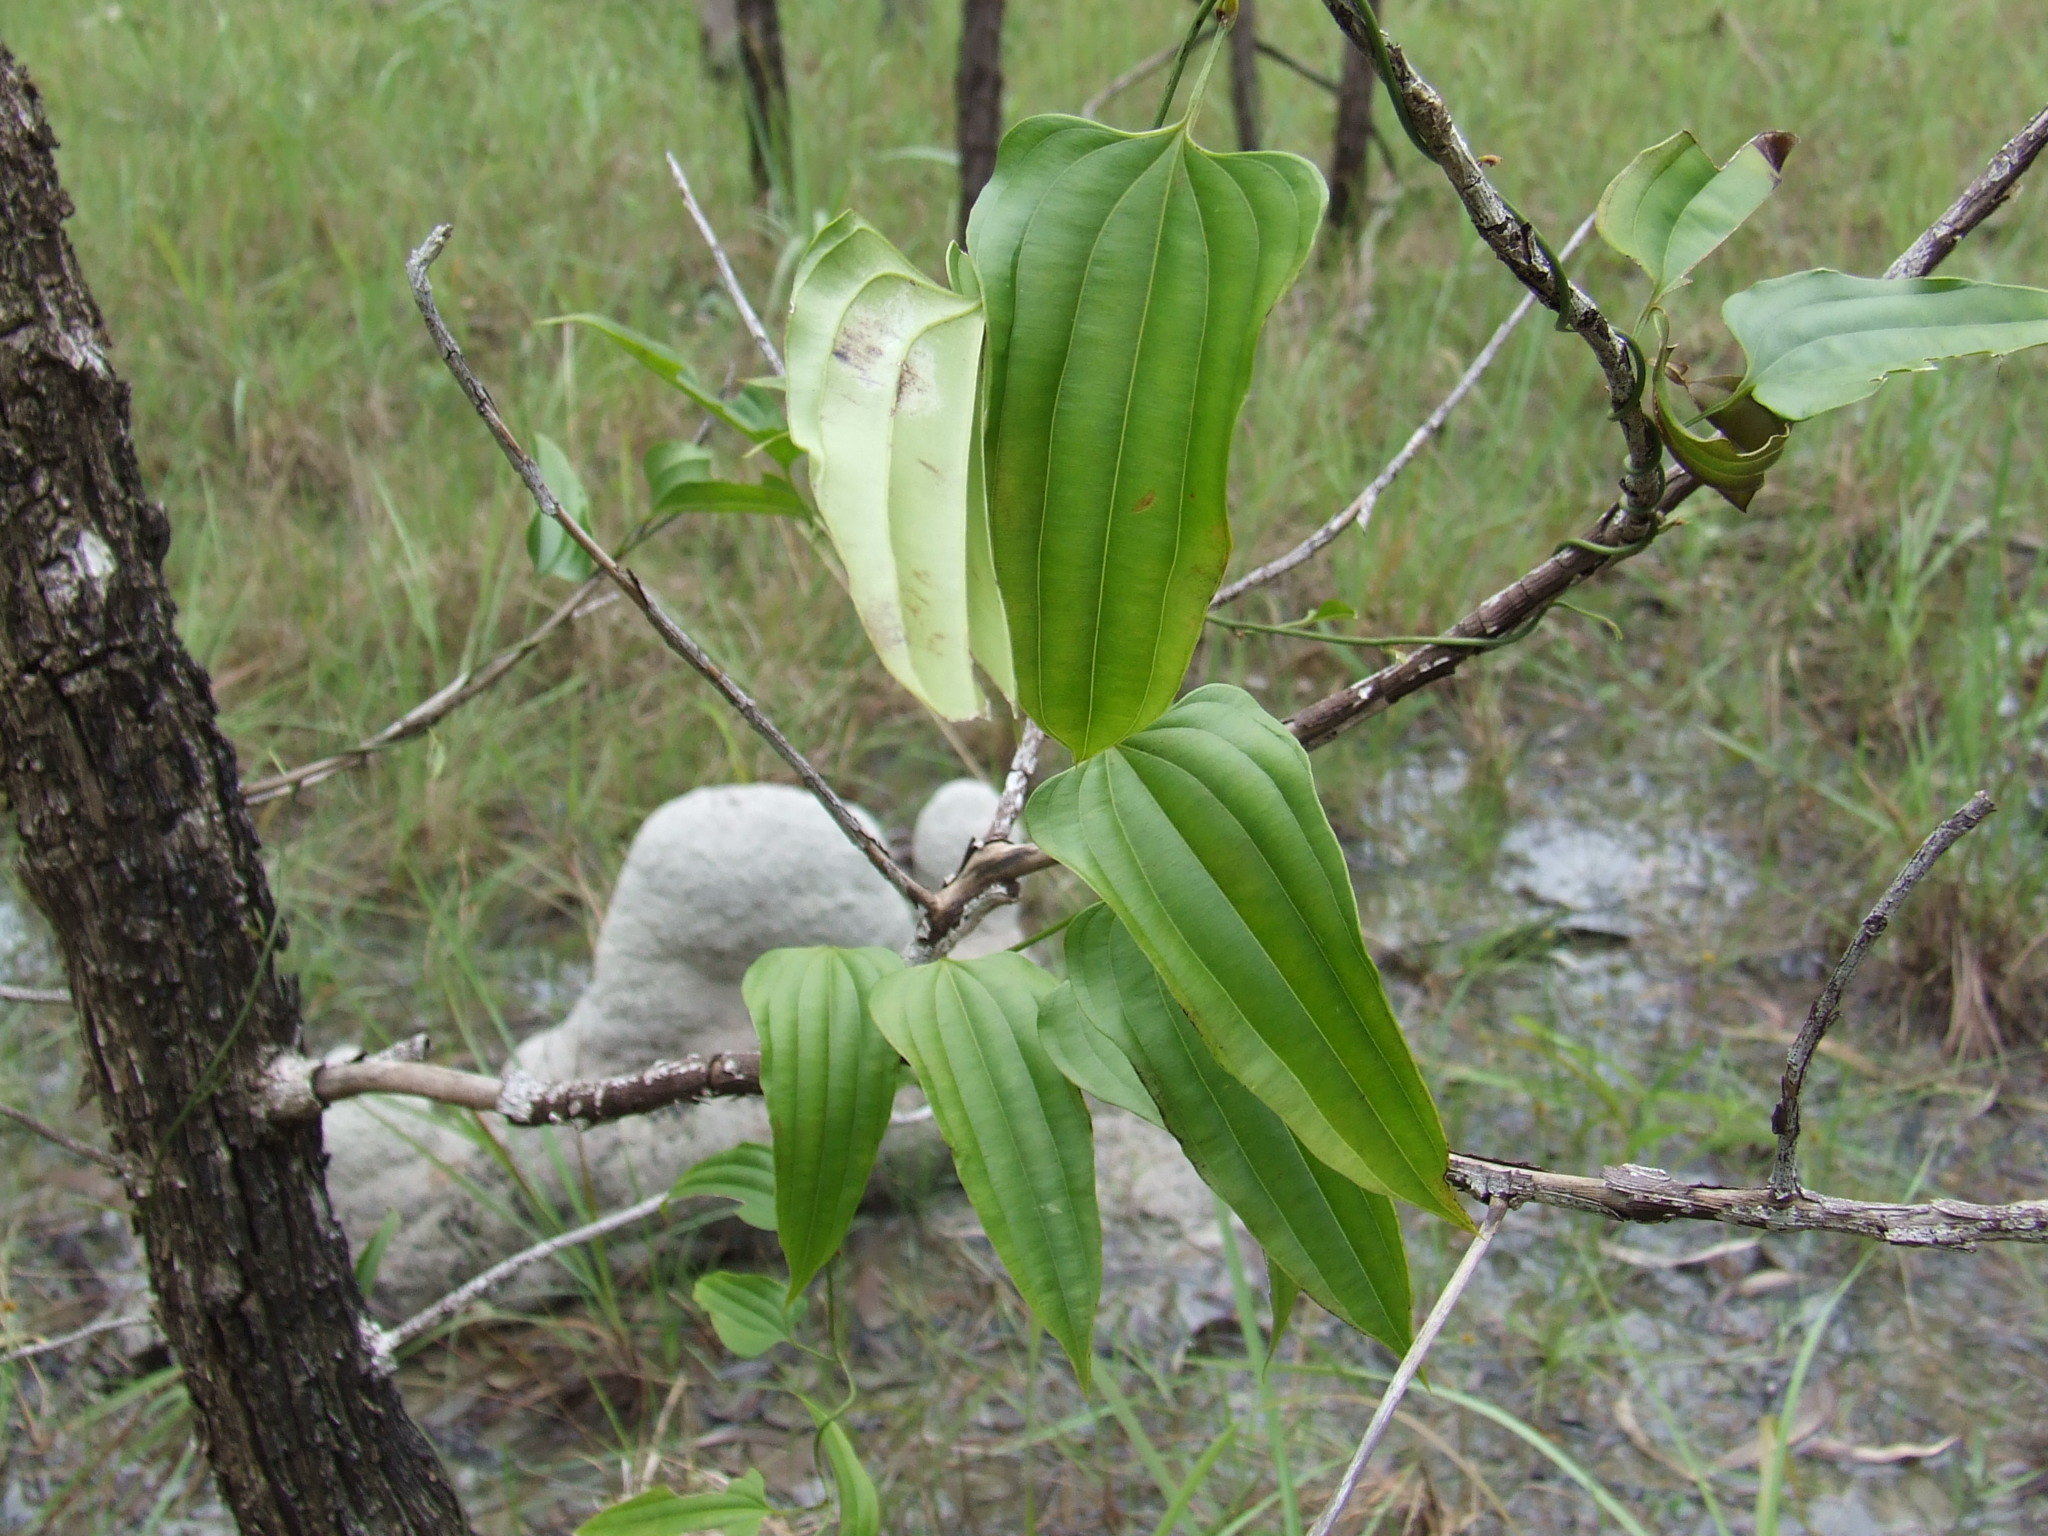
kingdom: Plantae
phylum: Tracheophyta
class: Liliopsida
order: Pandanales
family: Stemonaceae
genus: Stemona
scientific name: Stemona lucida
